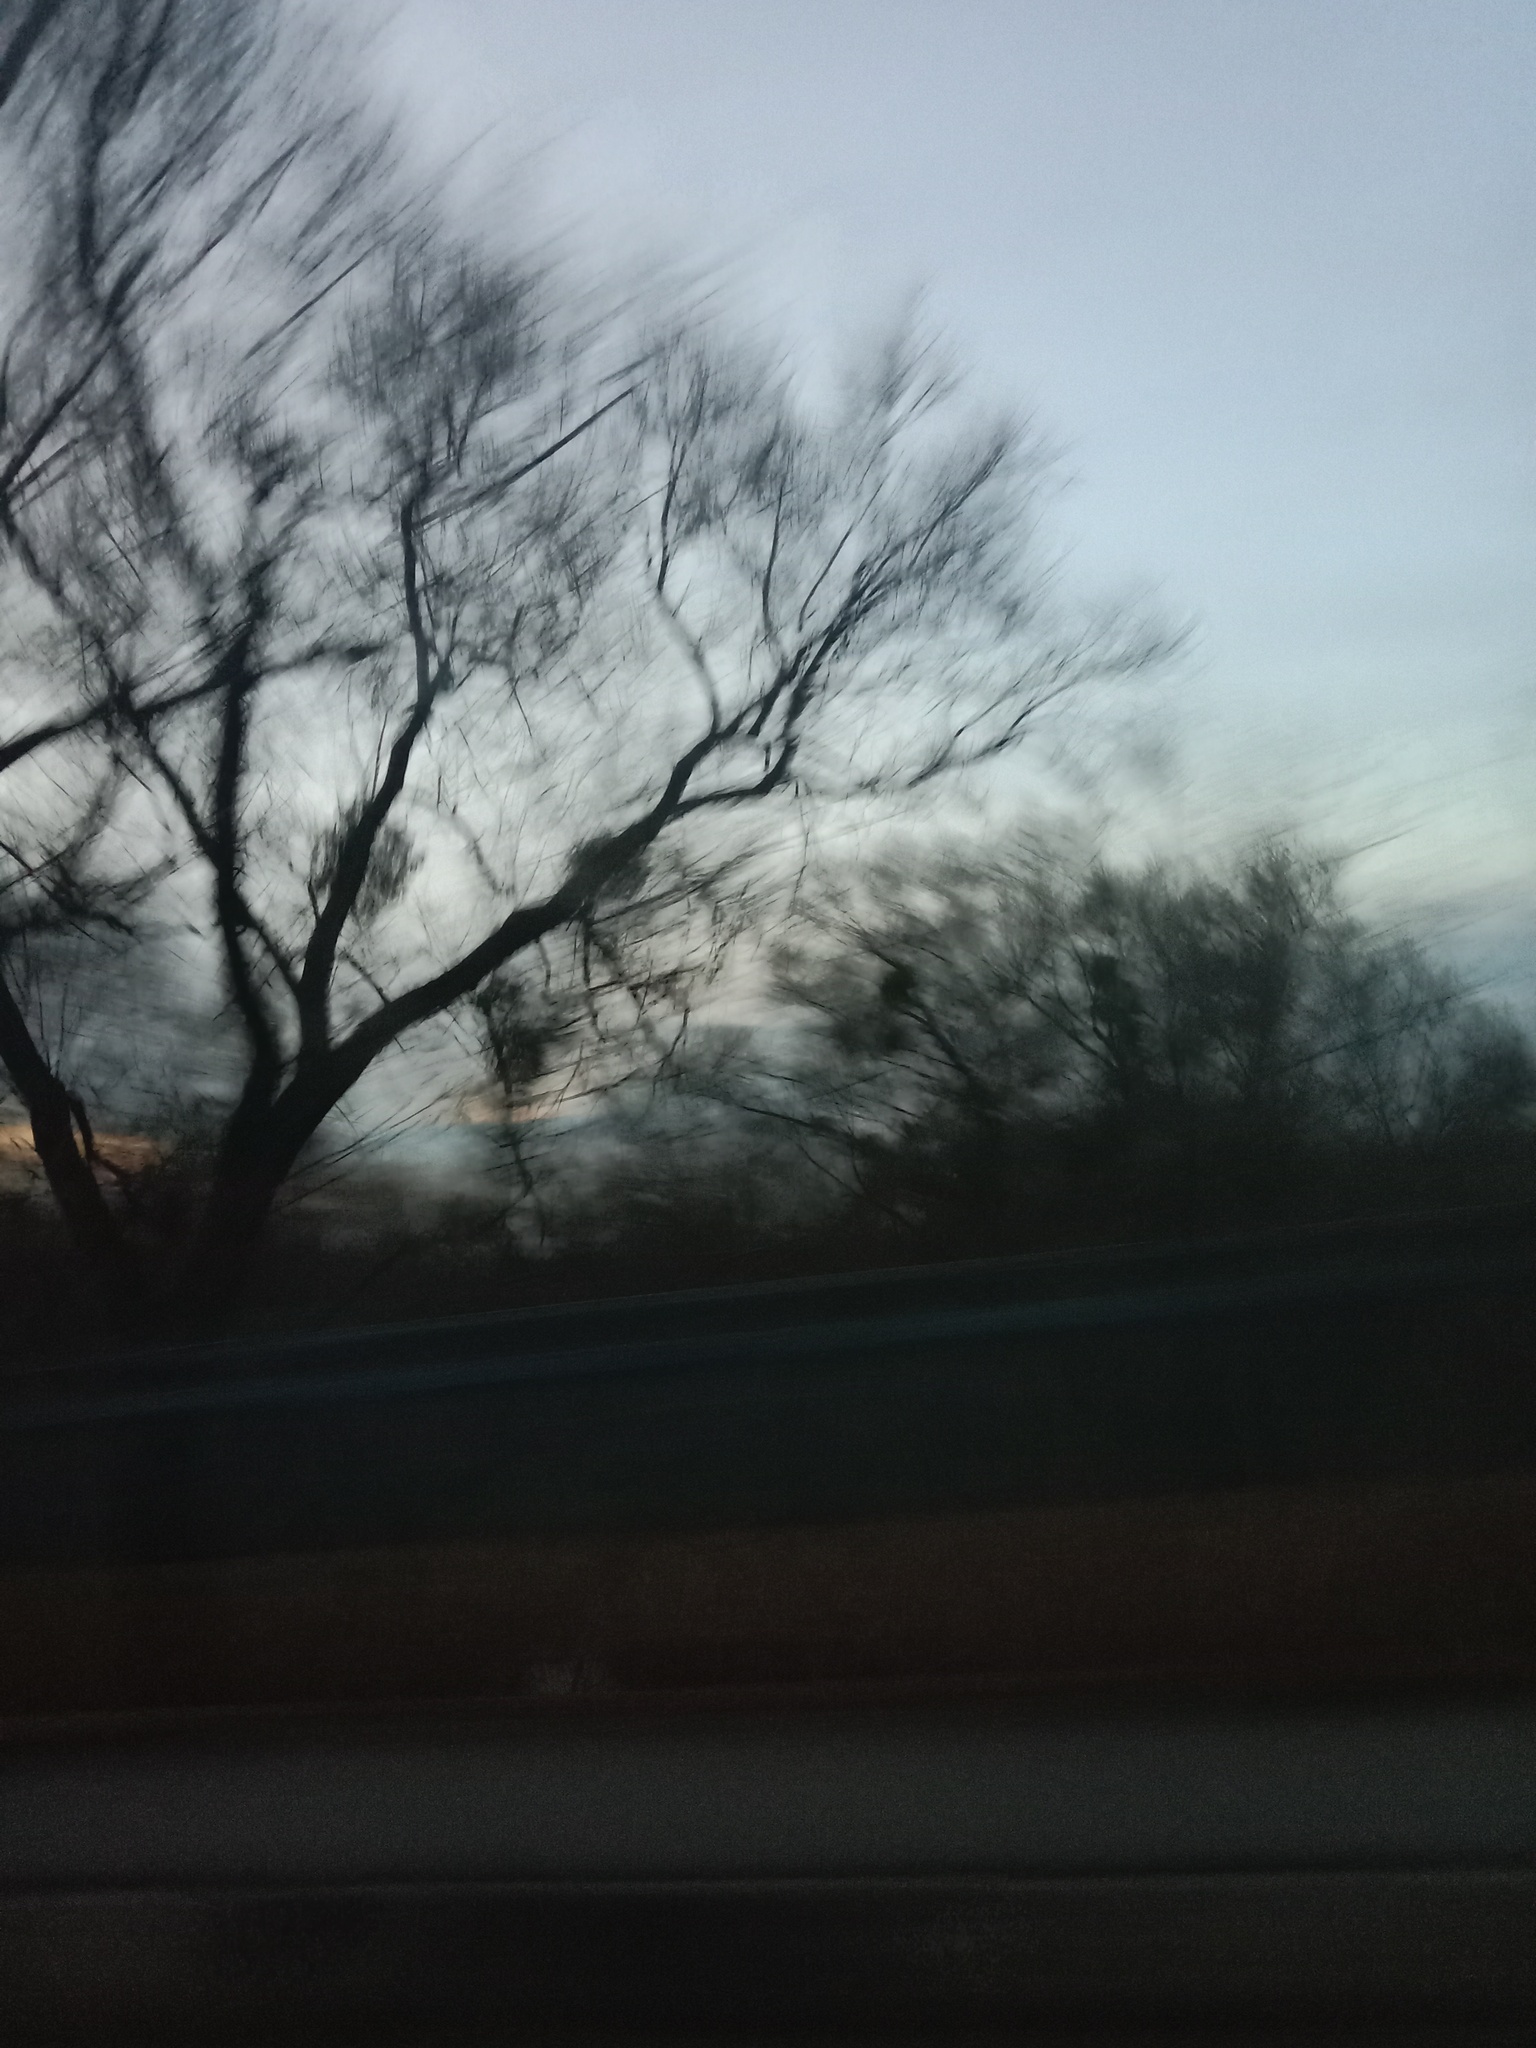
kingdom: Plantae
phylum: Tracheophyta
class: Magnoliopsida
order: Santalales
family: Viscaceae
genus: Viscum
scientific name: Viscum album
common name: Mistletoe
